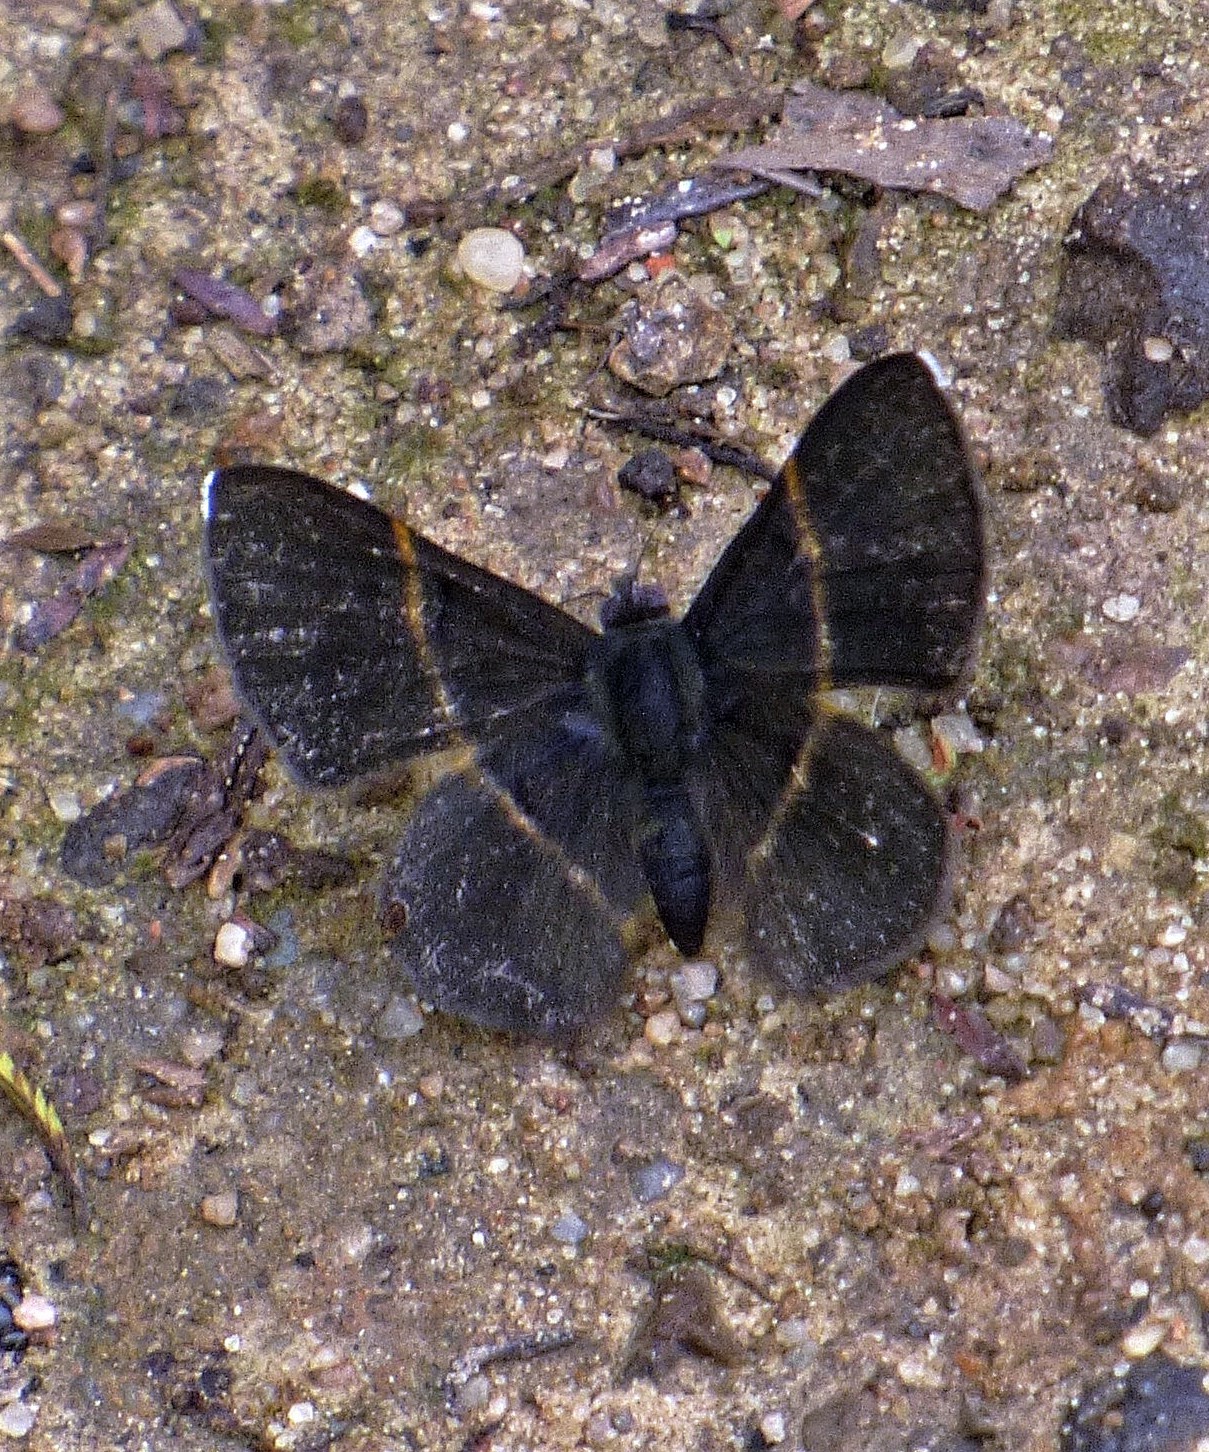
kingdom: Animalia
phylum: Arthropoda
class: Insecta
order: Lepidoptera
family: Riodinidae
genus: Parcella
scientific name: Parcella amarynthina
